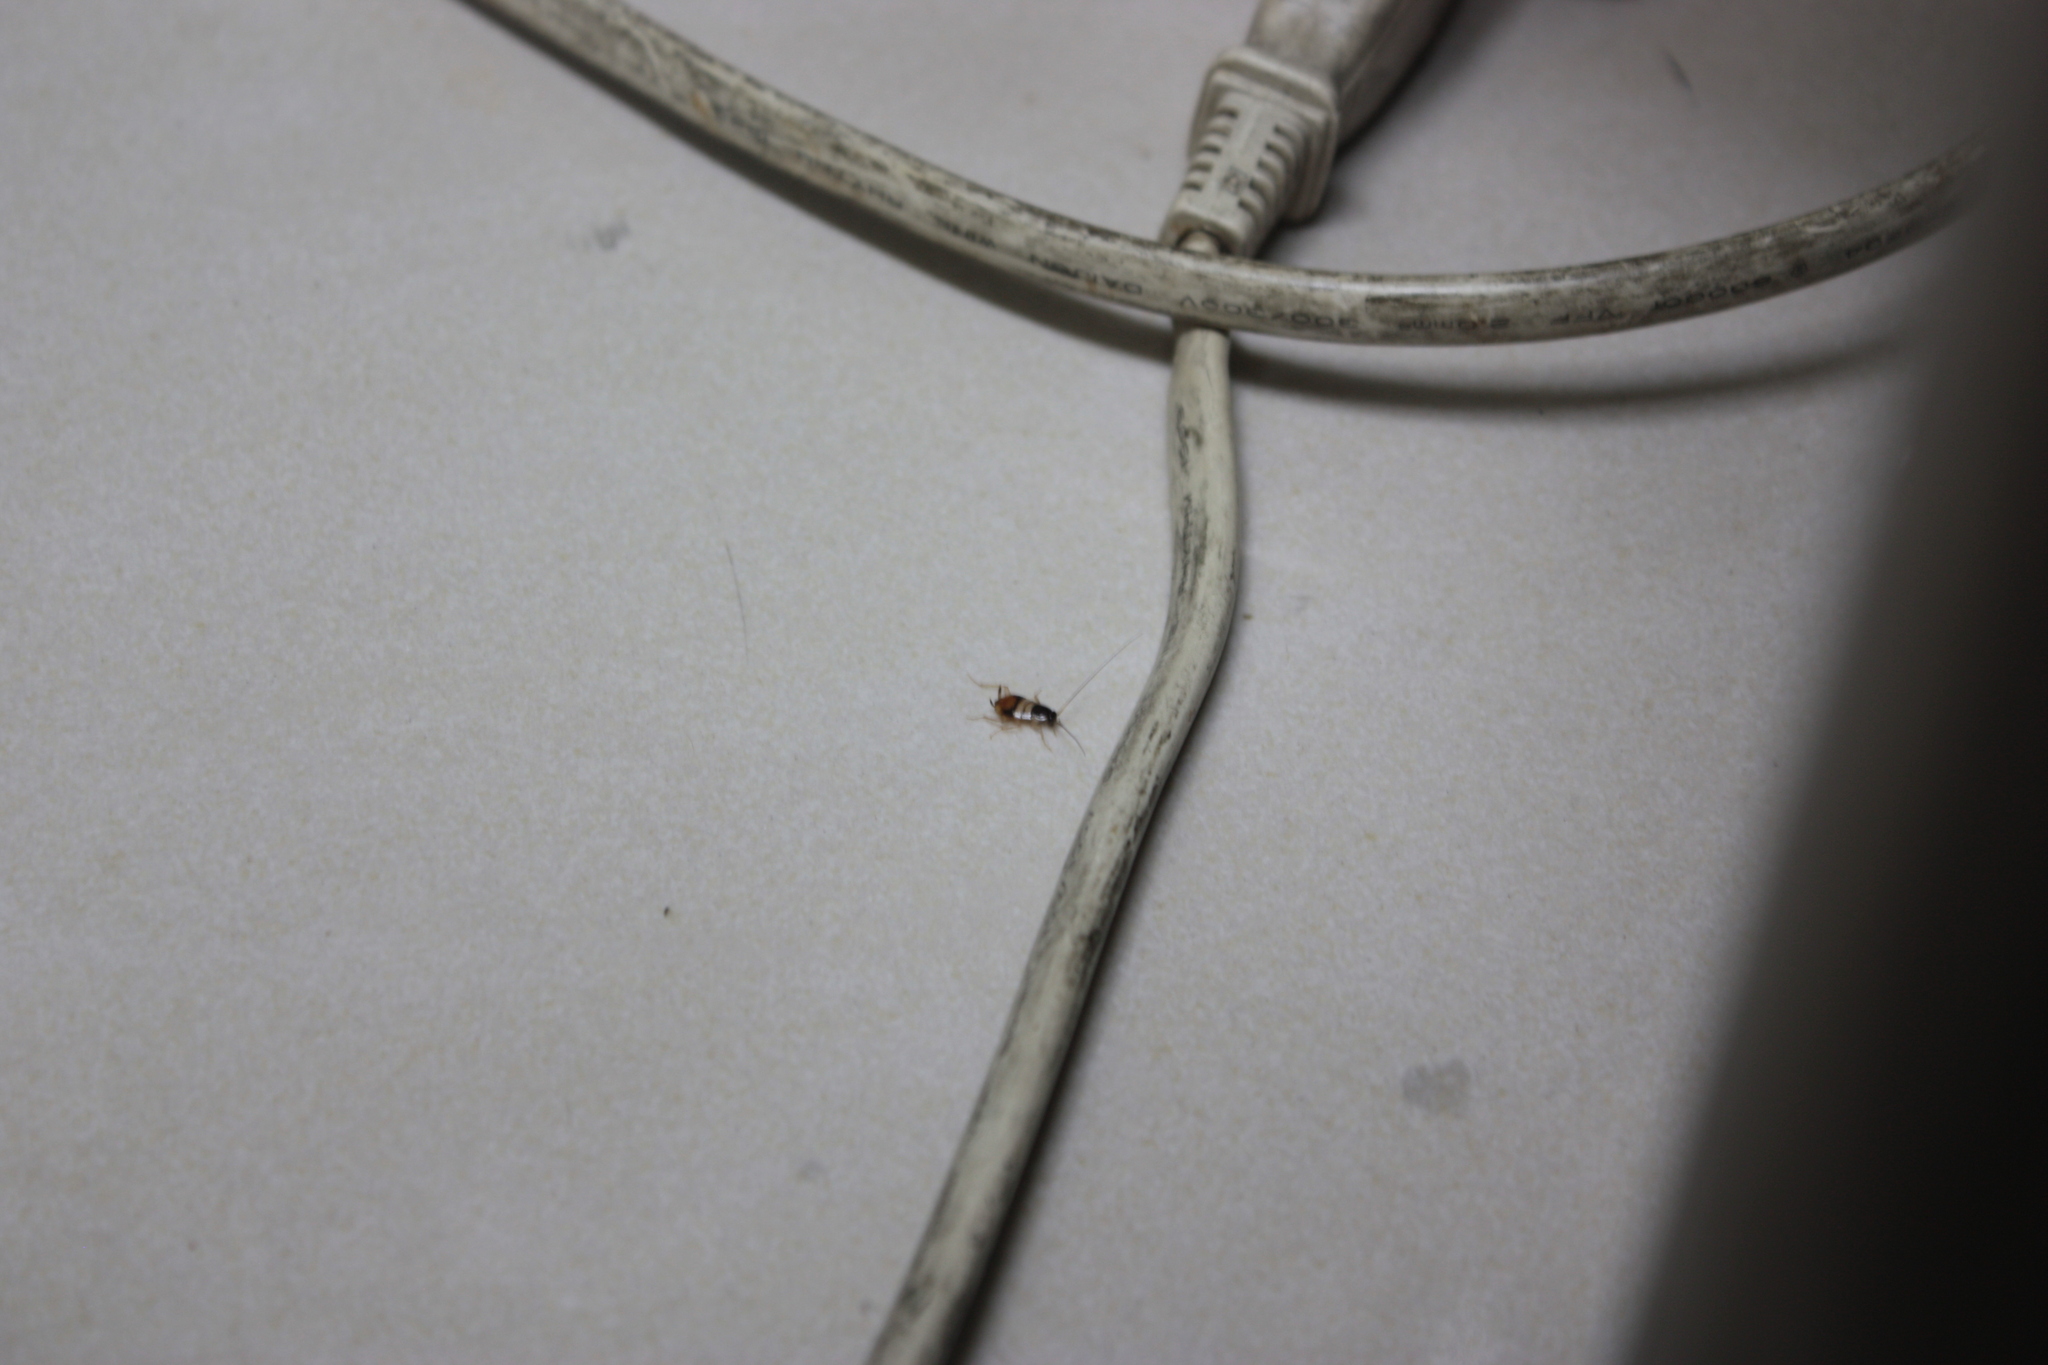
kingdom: Animalia
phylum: Arthropoda
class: Insecta
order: Blattodea
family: Ectobiidae
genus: Supella
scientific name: Supella longipalpa
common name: Brown-banded cockroach
